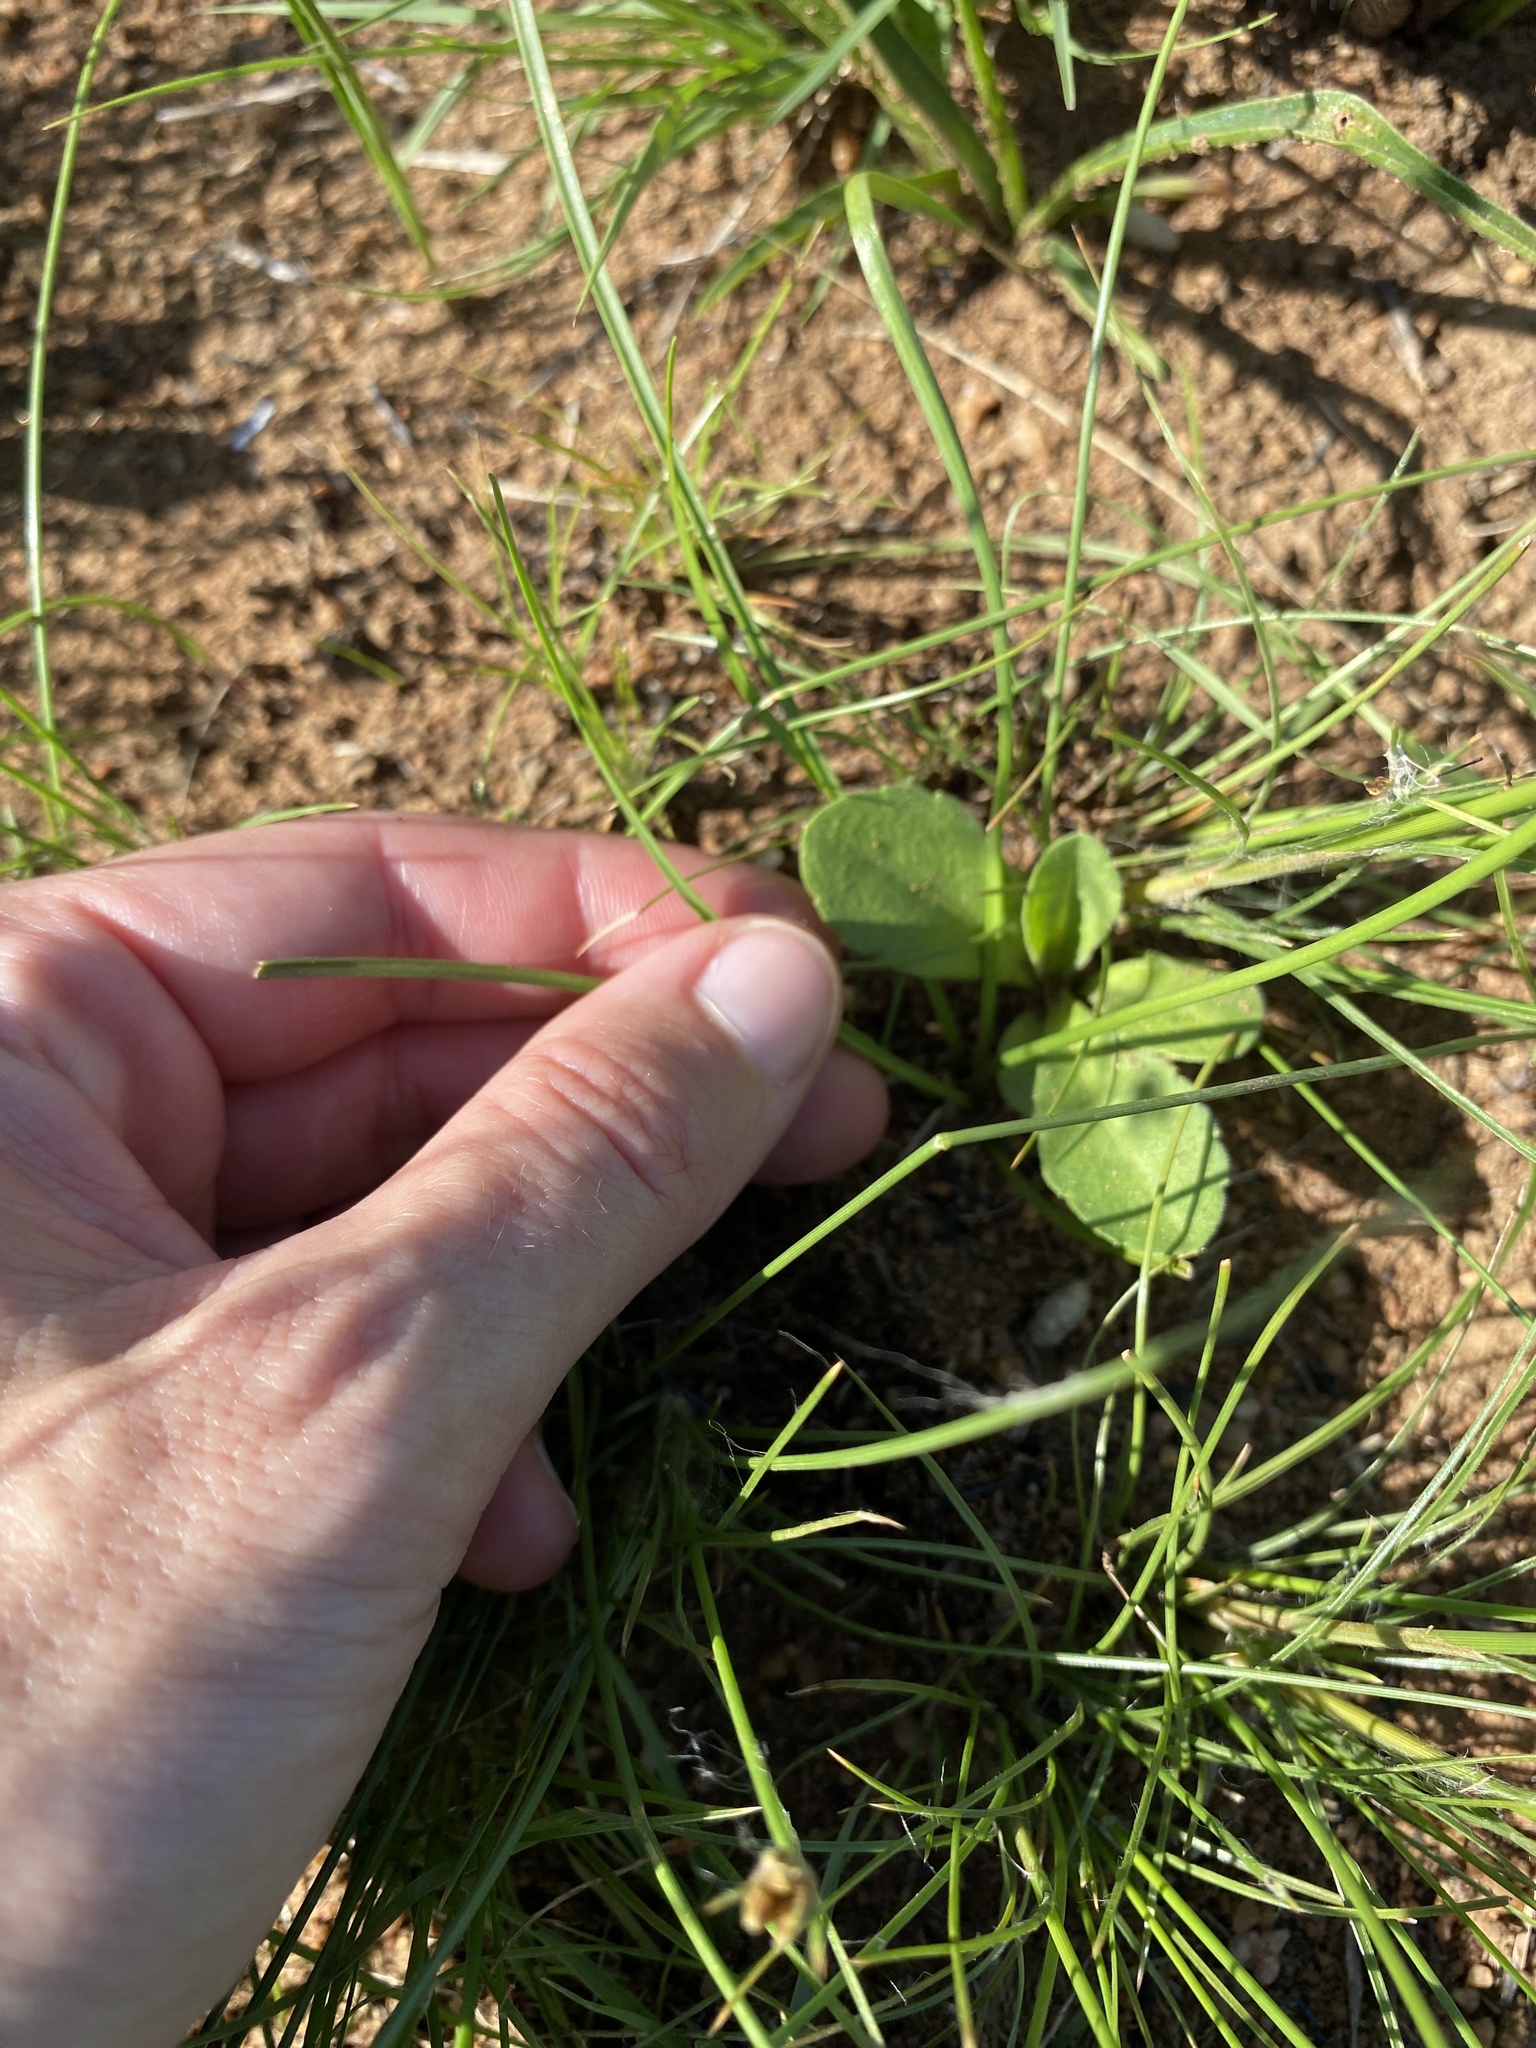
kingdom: Plantae
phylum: Tracheophyta
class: Liliopsida
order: Asparagales
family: Amaryllidaceae
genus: Tulbaghia
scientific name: Tulbaghia acutiloba
